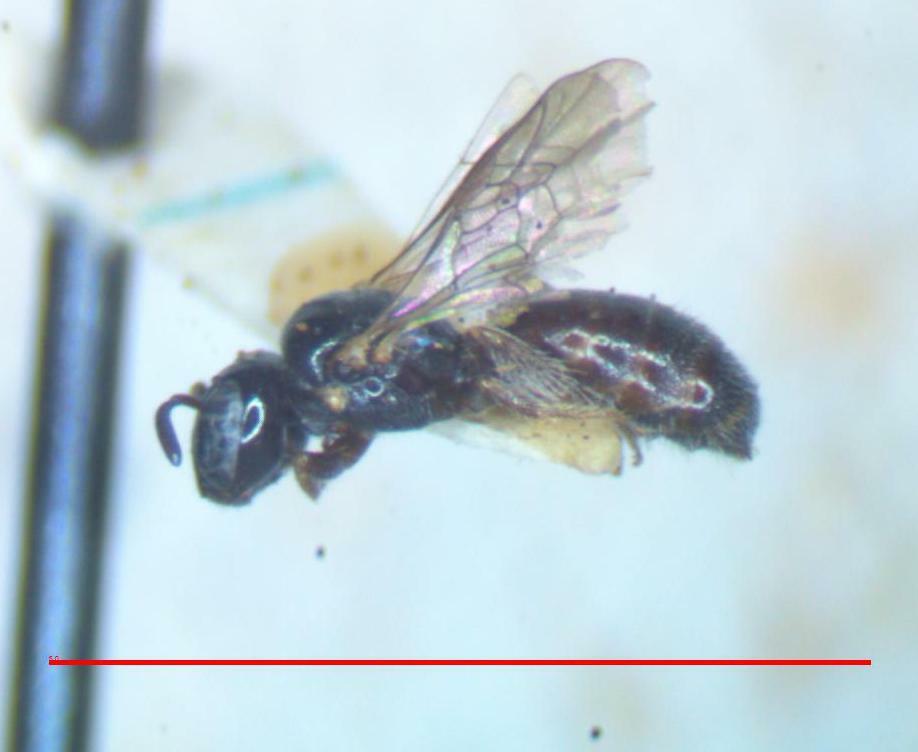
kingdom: Animalia
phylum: Arthropoda
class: Insecta
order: Hymenoptera
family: Apidae
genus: Ceratinula
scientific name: Ceratinula
